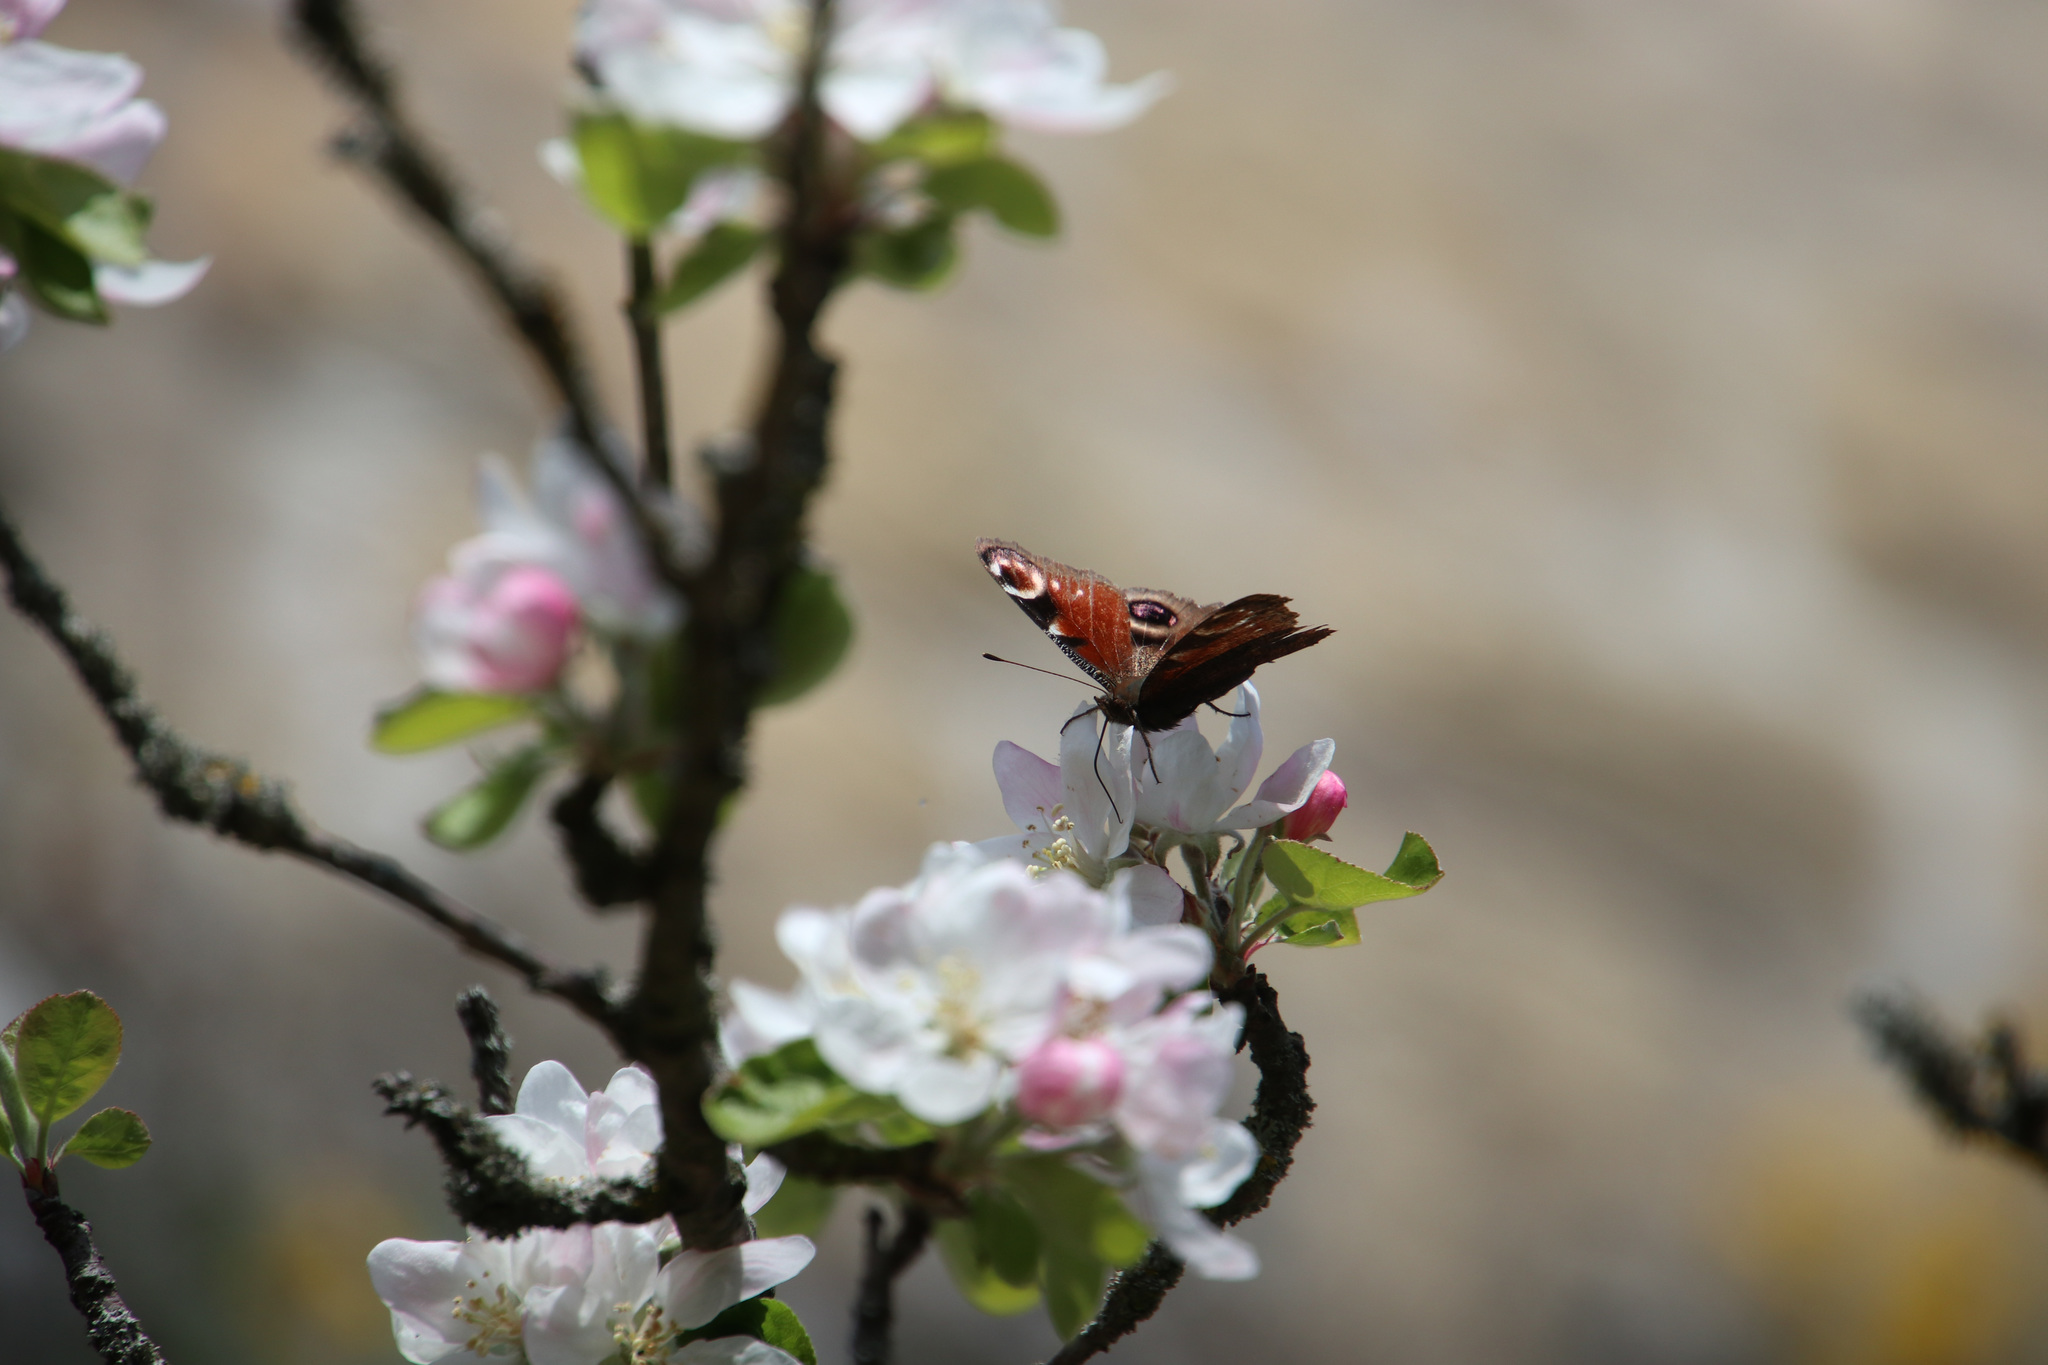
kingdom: Animalia
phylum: Arthropoda
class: Insecta
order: Lepidoptera
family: Nymphalidae
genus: Aglais
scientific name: Aglais io
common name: Peacock
